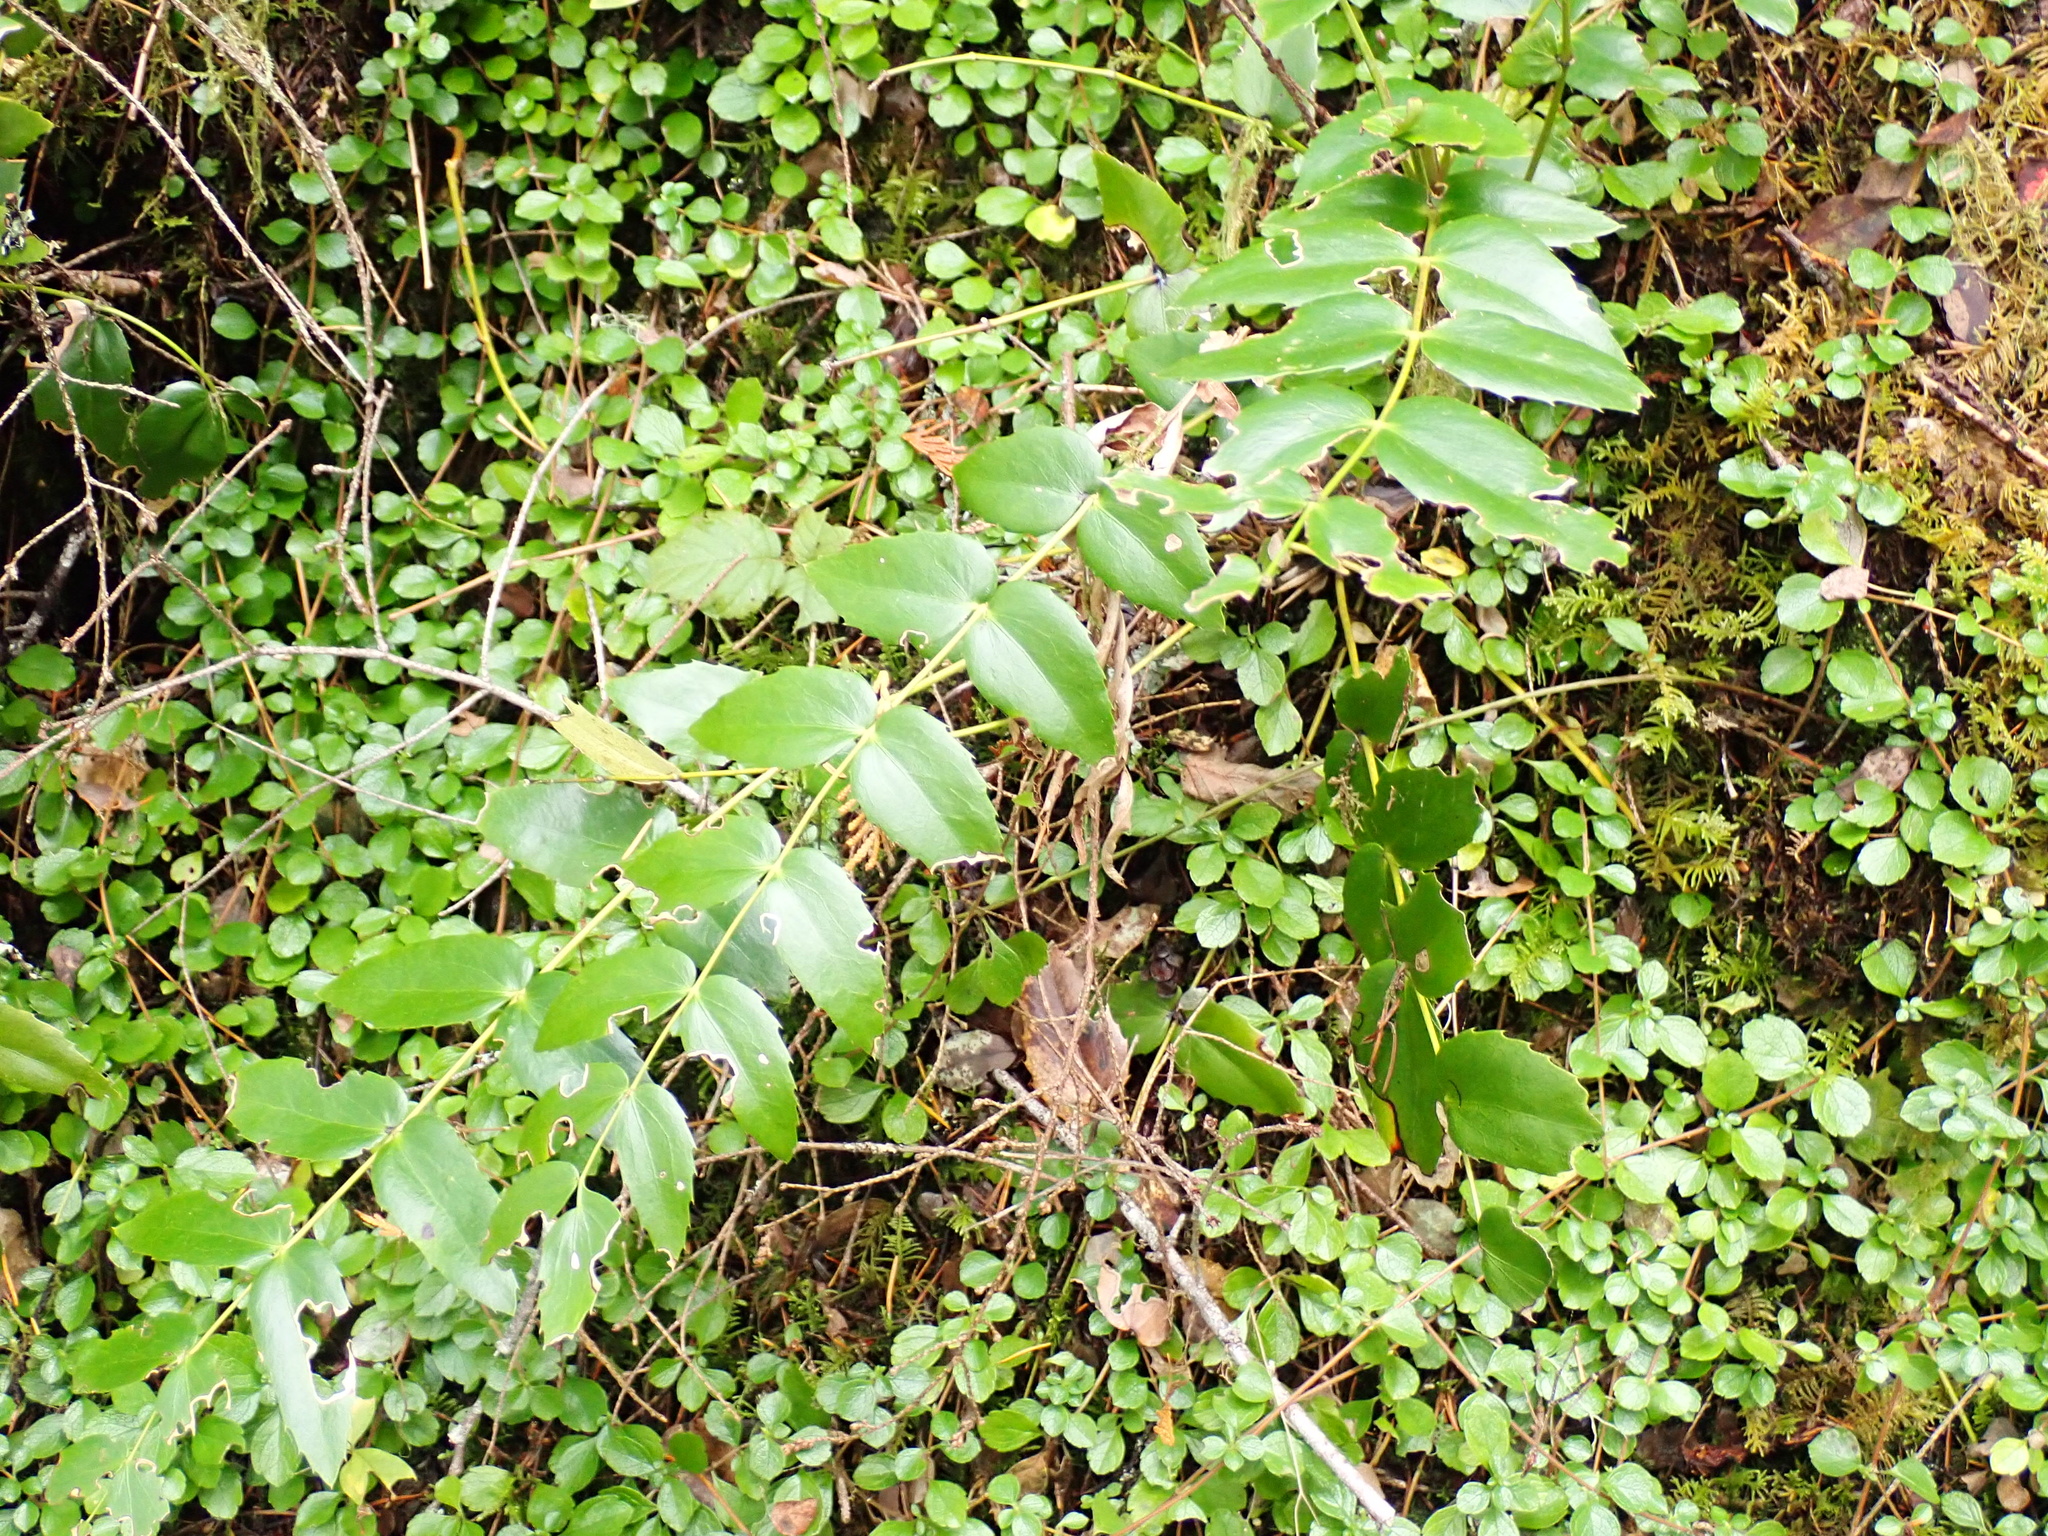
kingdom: Plantae
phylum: Tracheophyta
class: Magnoliopsida
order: Ranunculales
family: Berberidaceae
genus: Mahonia
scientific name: Mahonia nervosa
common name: Cascade oregon-grape
